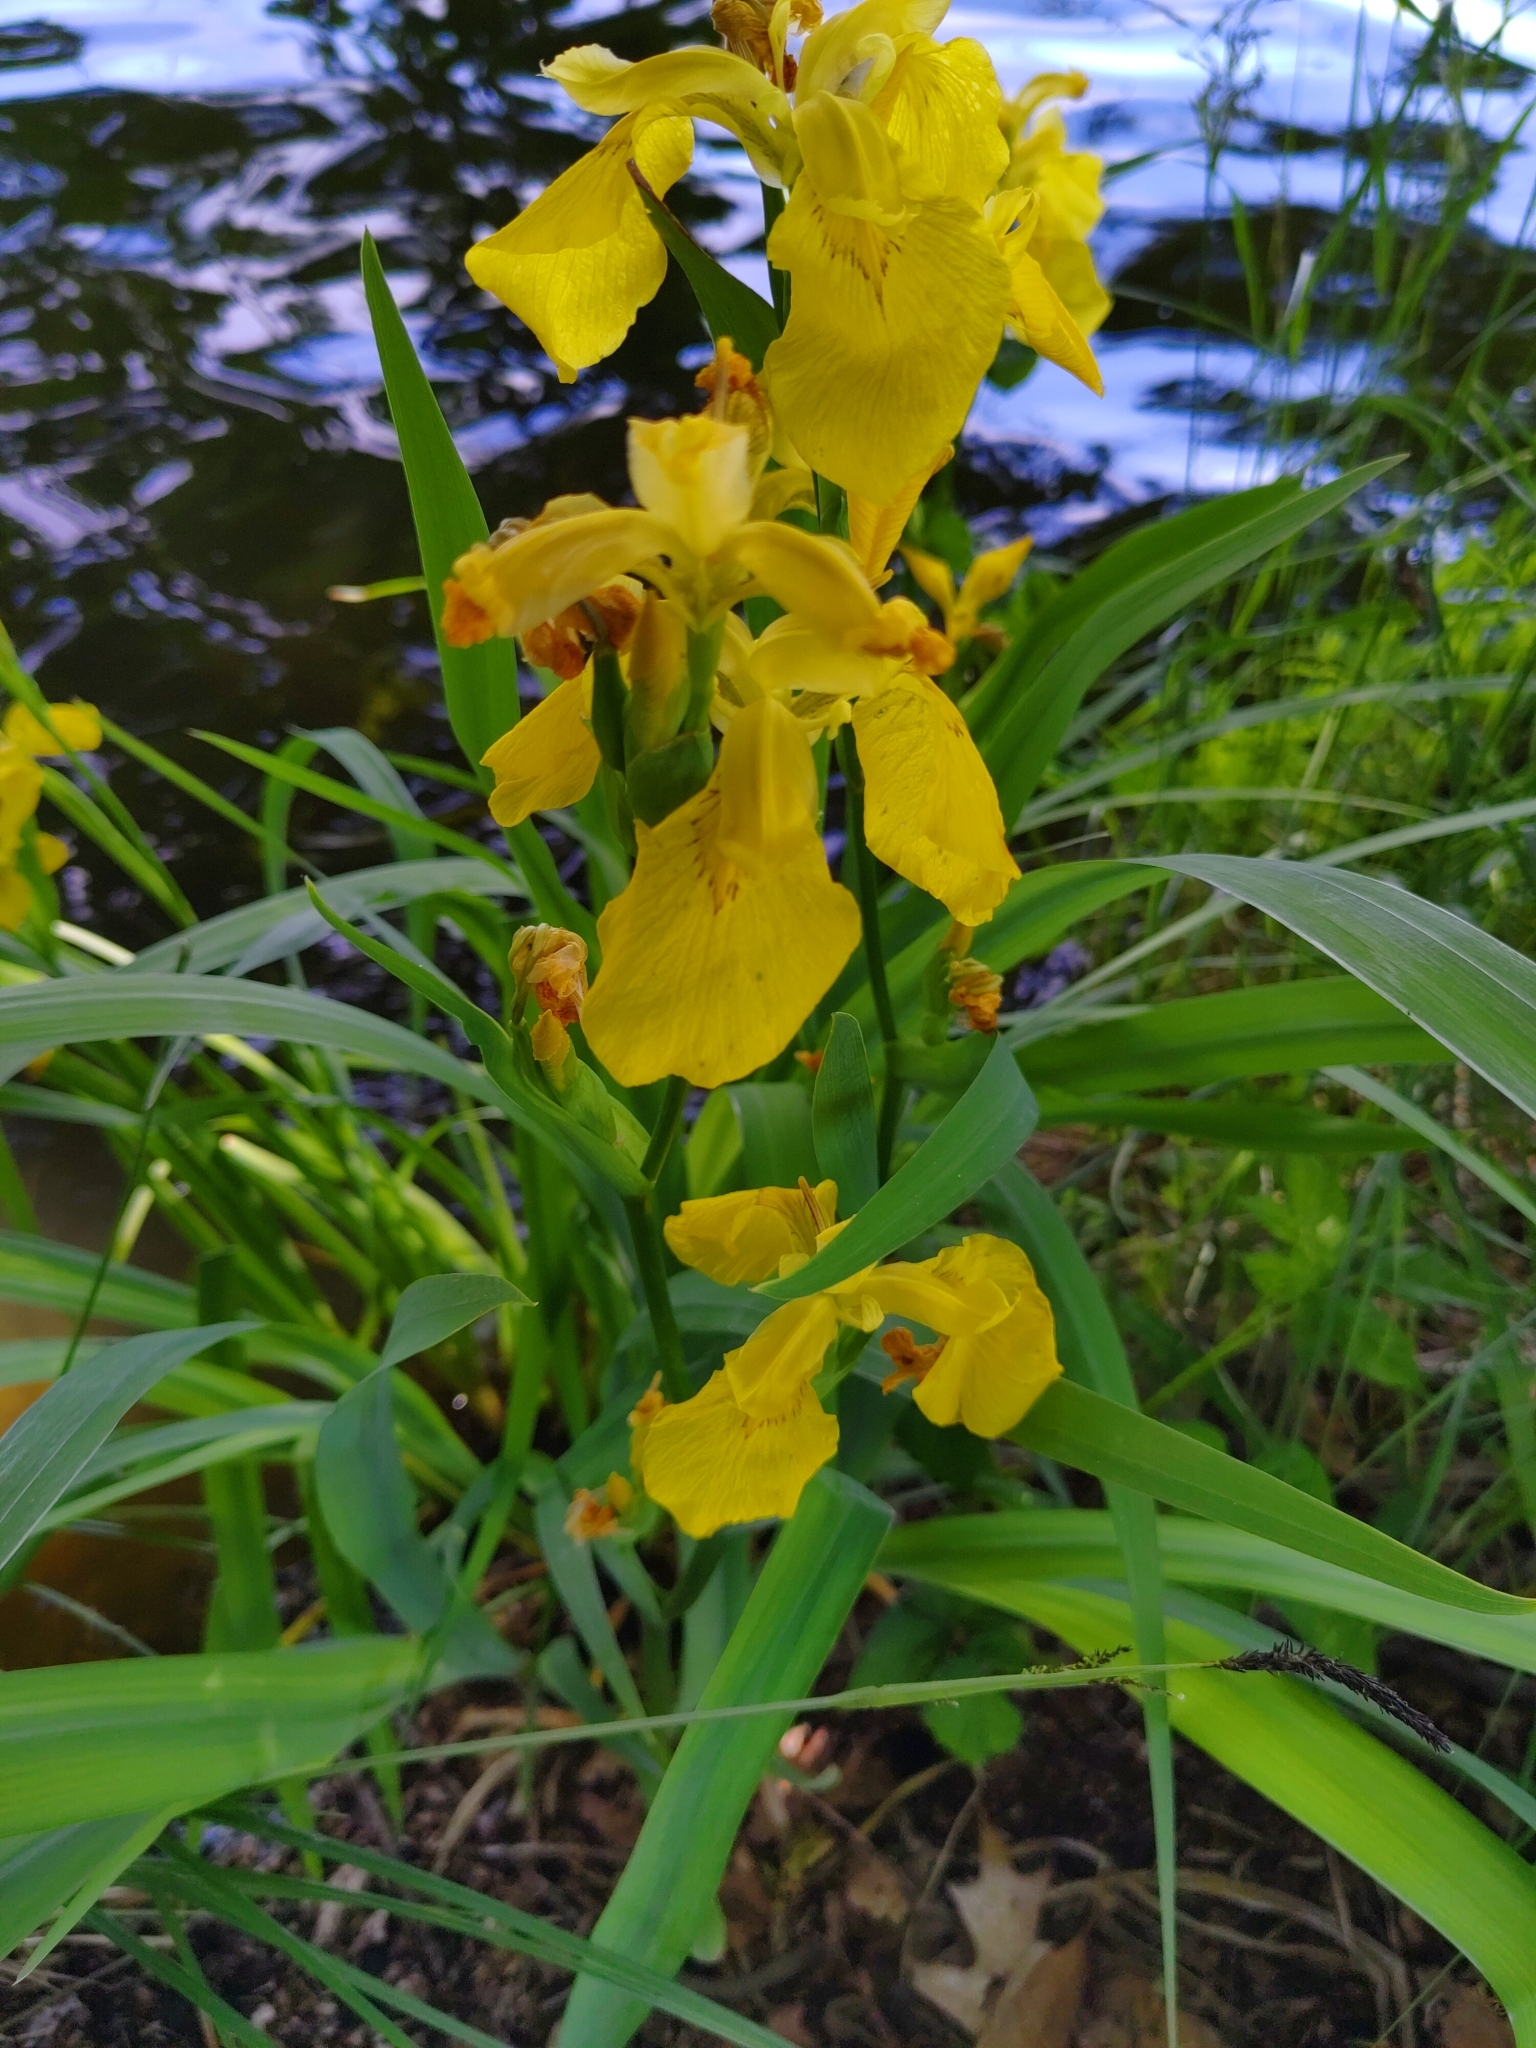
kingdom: Plantae
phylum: Tracheophyta
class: Liliopsida
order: Asparagales
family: Iridaceae
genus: Iris
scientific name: Iris pseudacorus
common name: Yellow flag
